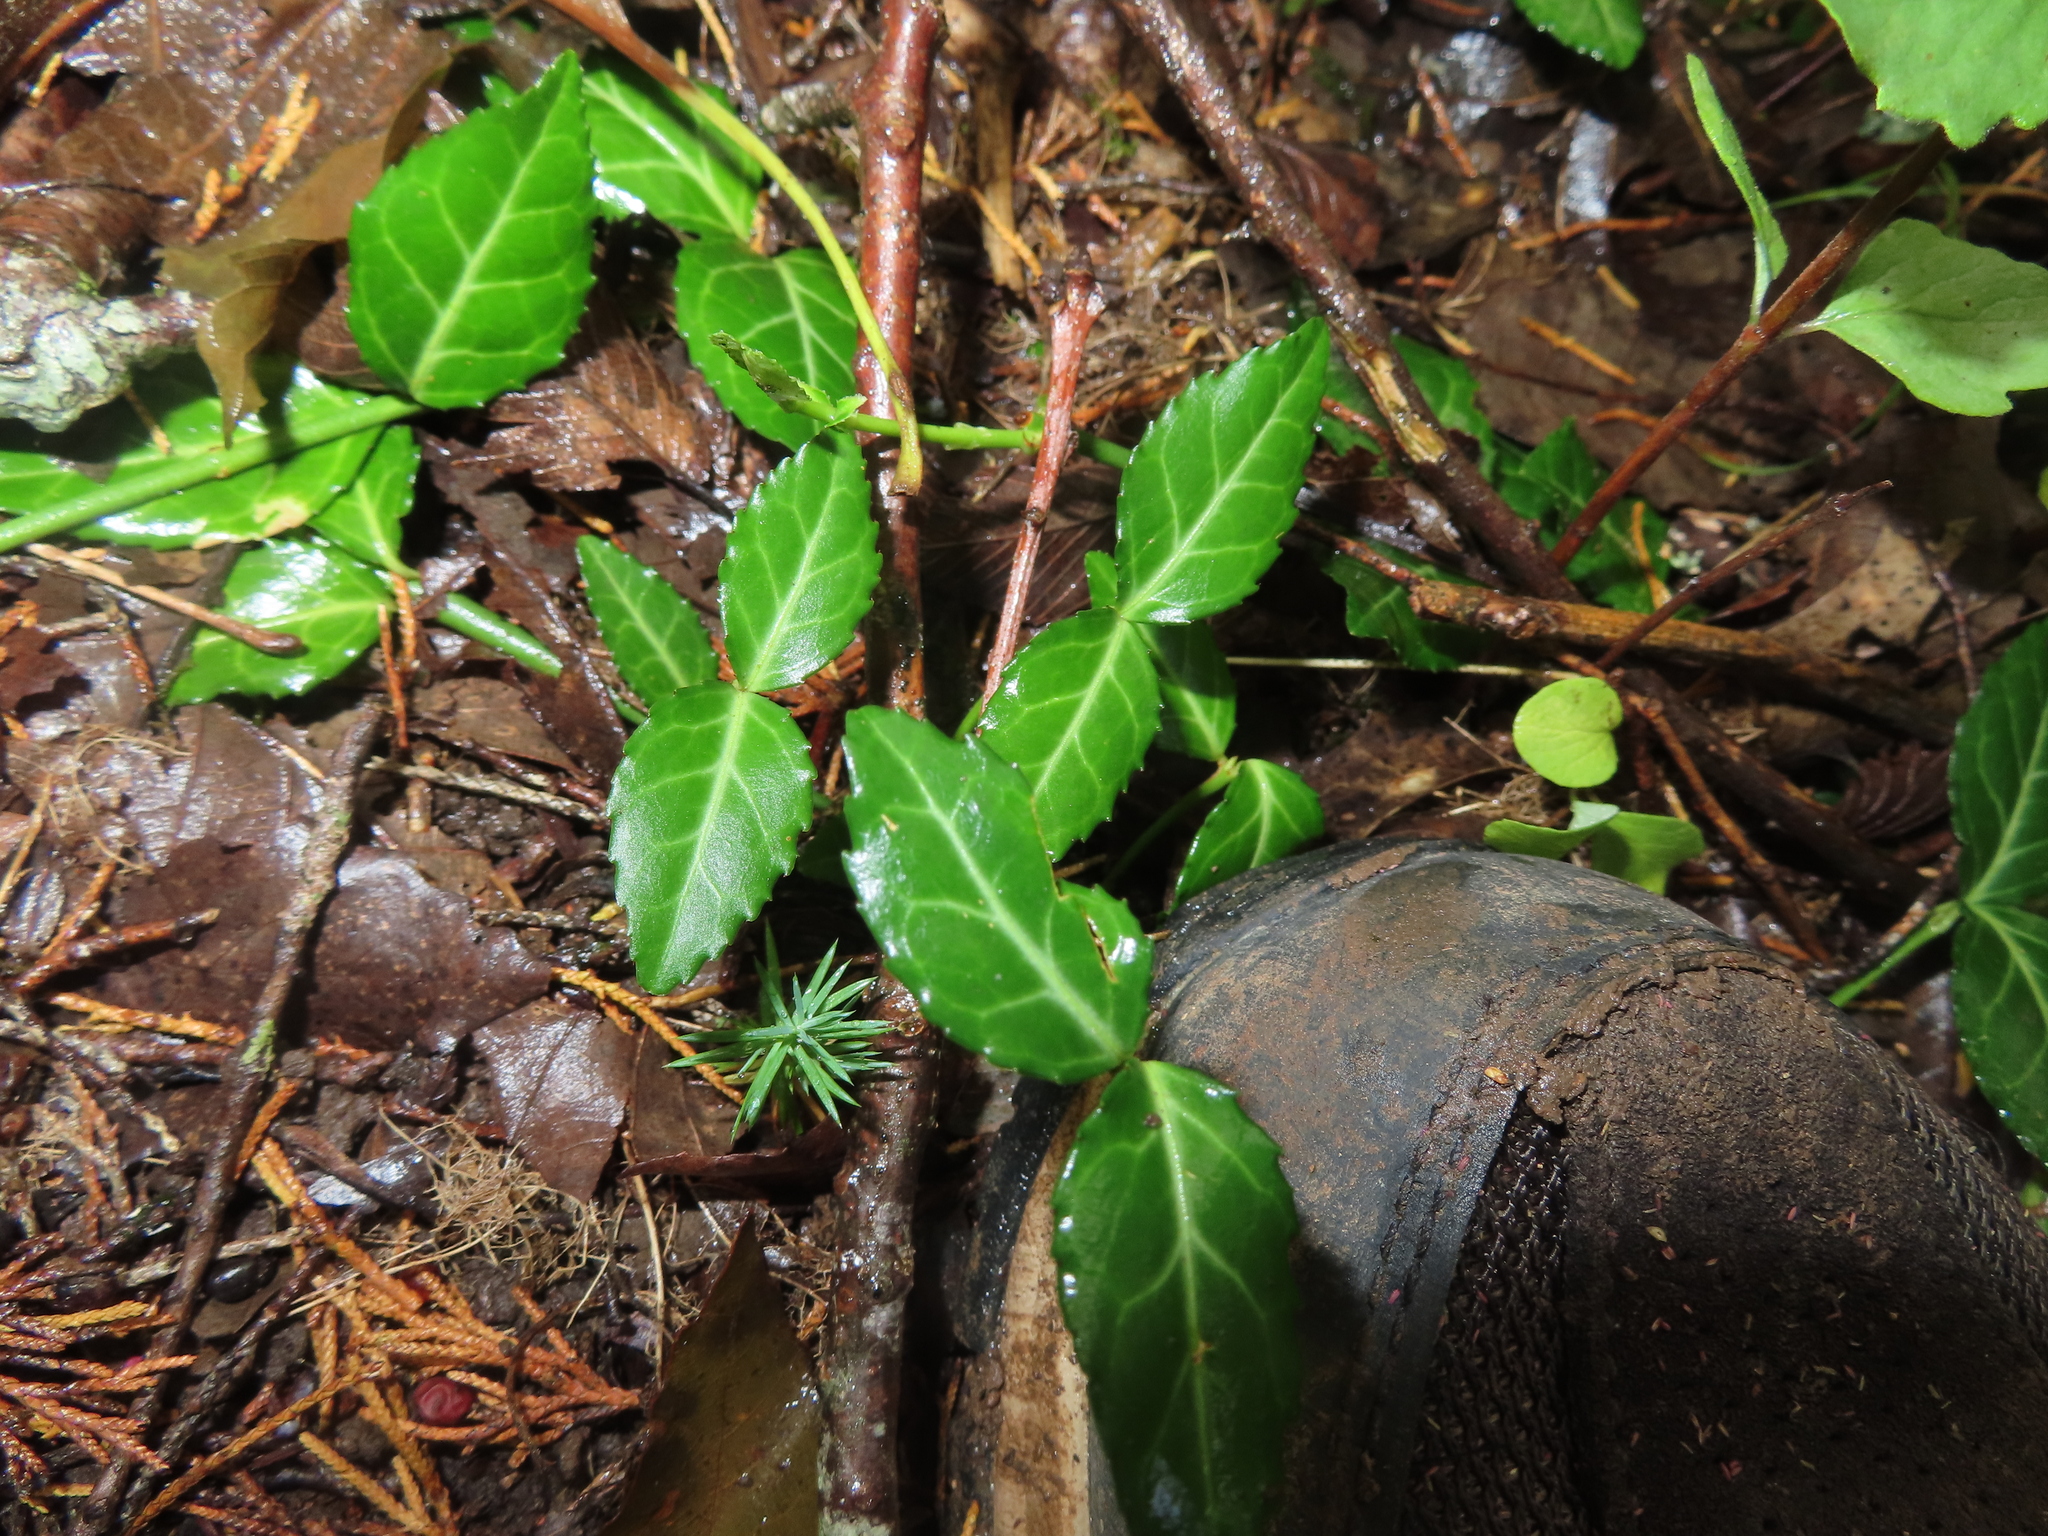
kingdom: Plantae
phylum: Tracheophyta
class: Magnoliopsida
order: Celastrales
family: Celastraceae
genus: Euonymus
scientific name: Euonymus fortunei
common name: Climbing euonymus
